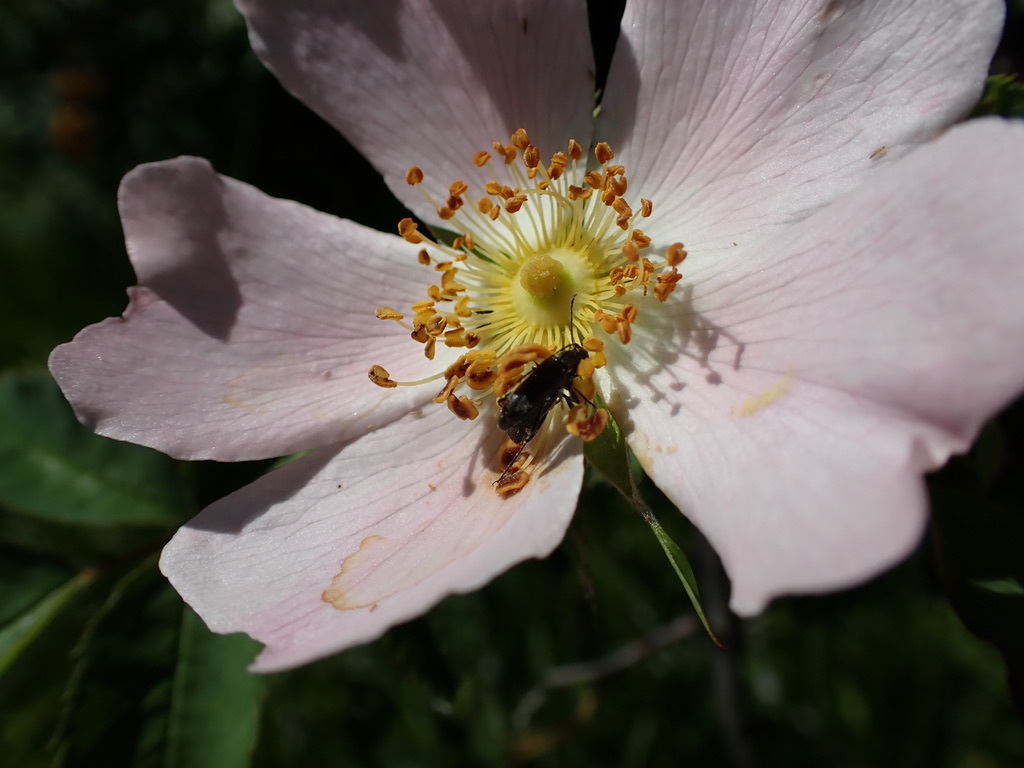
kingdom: Animalia
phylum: Arthropoda
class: Insecta
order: Coleoptera
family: Cerambycidae
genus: Grammoptera
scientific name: Grammoptera subargentata
